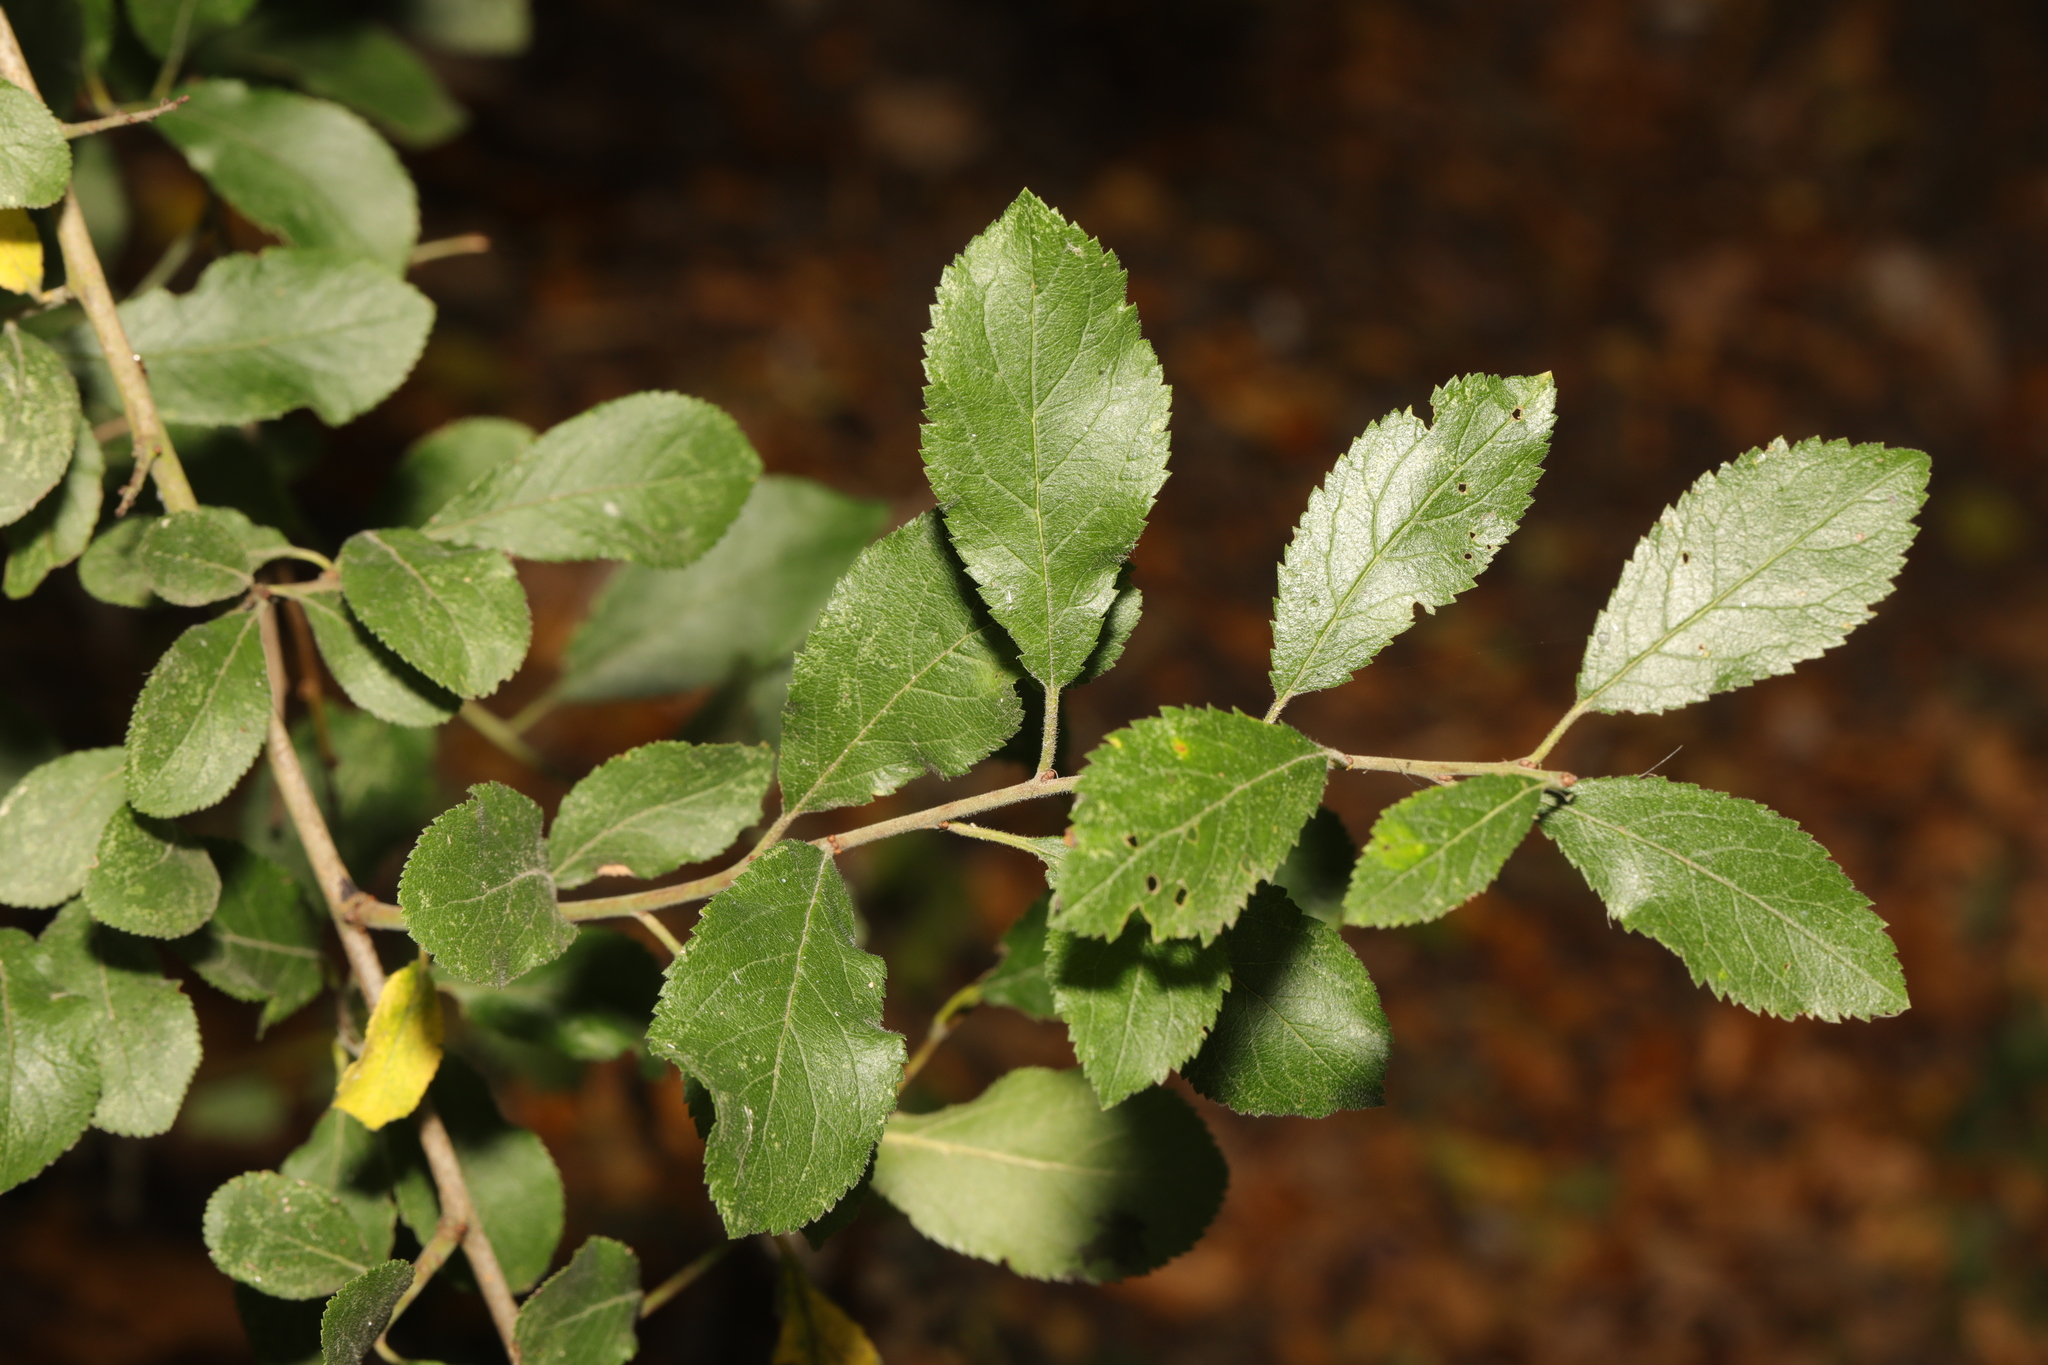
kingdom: Plantae
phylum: Tracheophyta
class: Magnoliopsida
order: Rosales
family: Rosaceae
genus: Prunus
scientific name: Prunus spinosa
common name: Blackthorn
